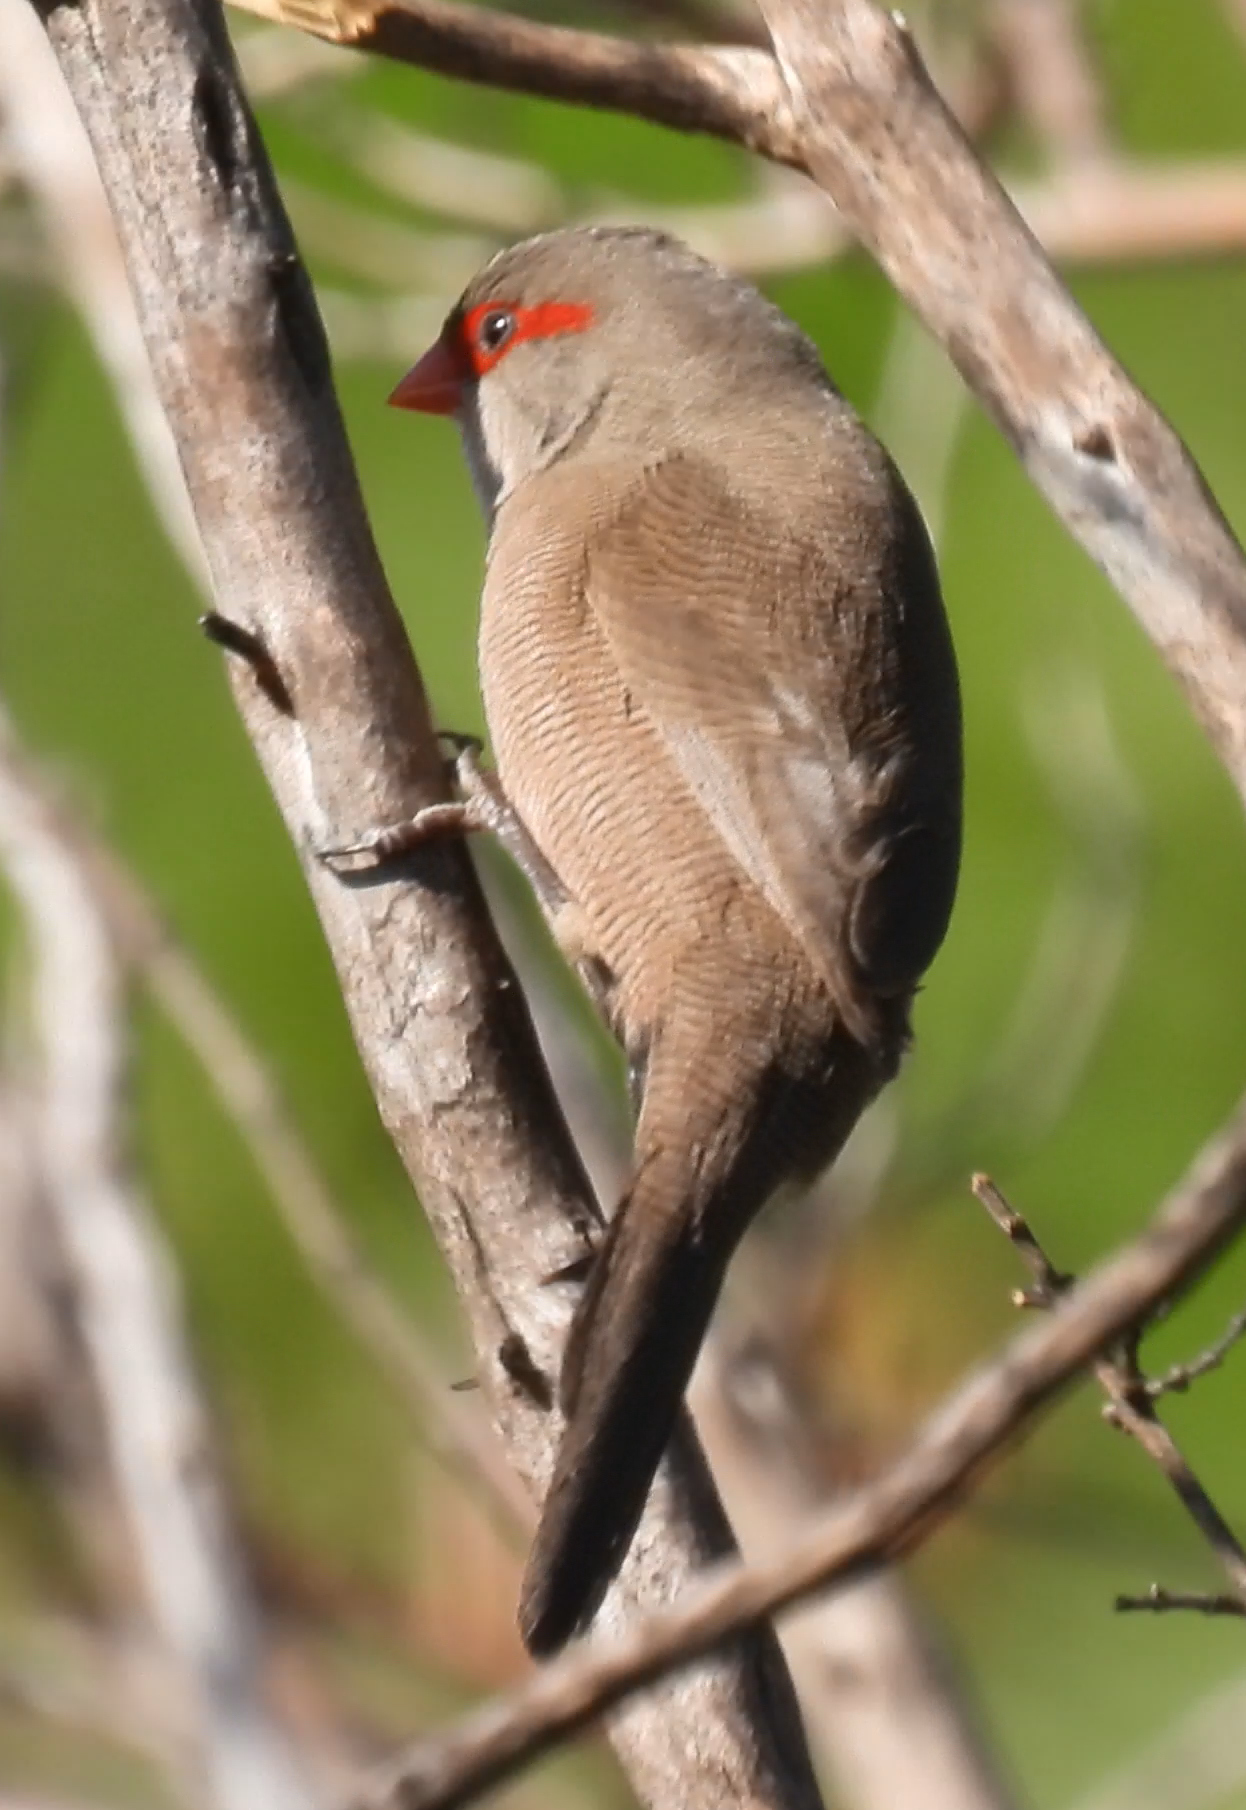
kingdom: Animalia
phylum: Chordata
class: Aves
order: Passeriformes
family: Estrildidae
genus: Estrilda
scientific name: Estrilda astrild
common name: Common waxbill
